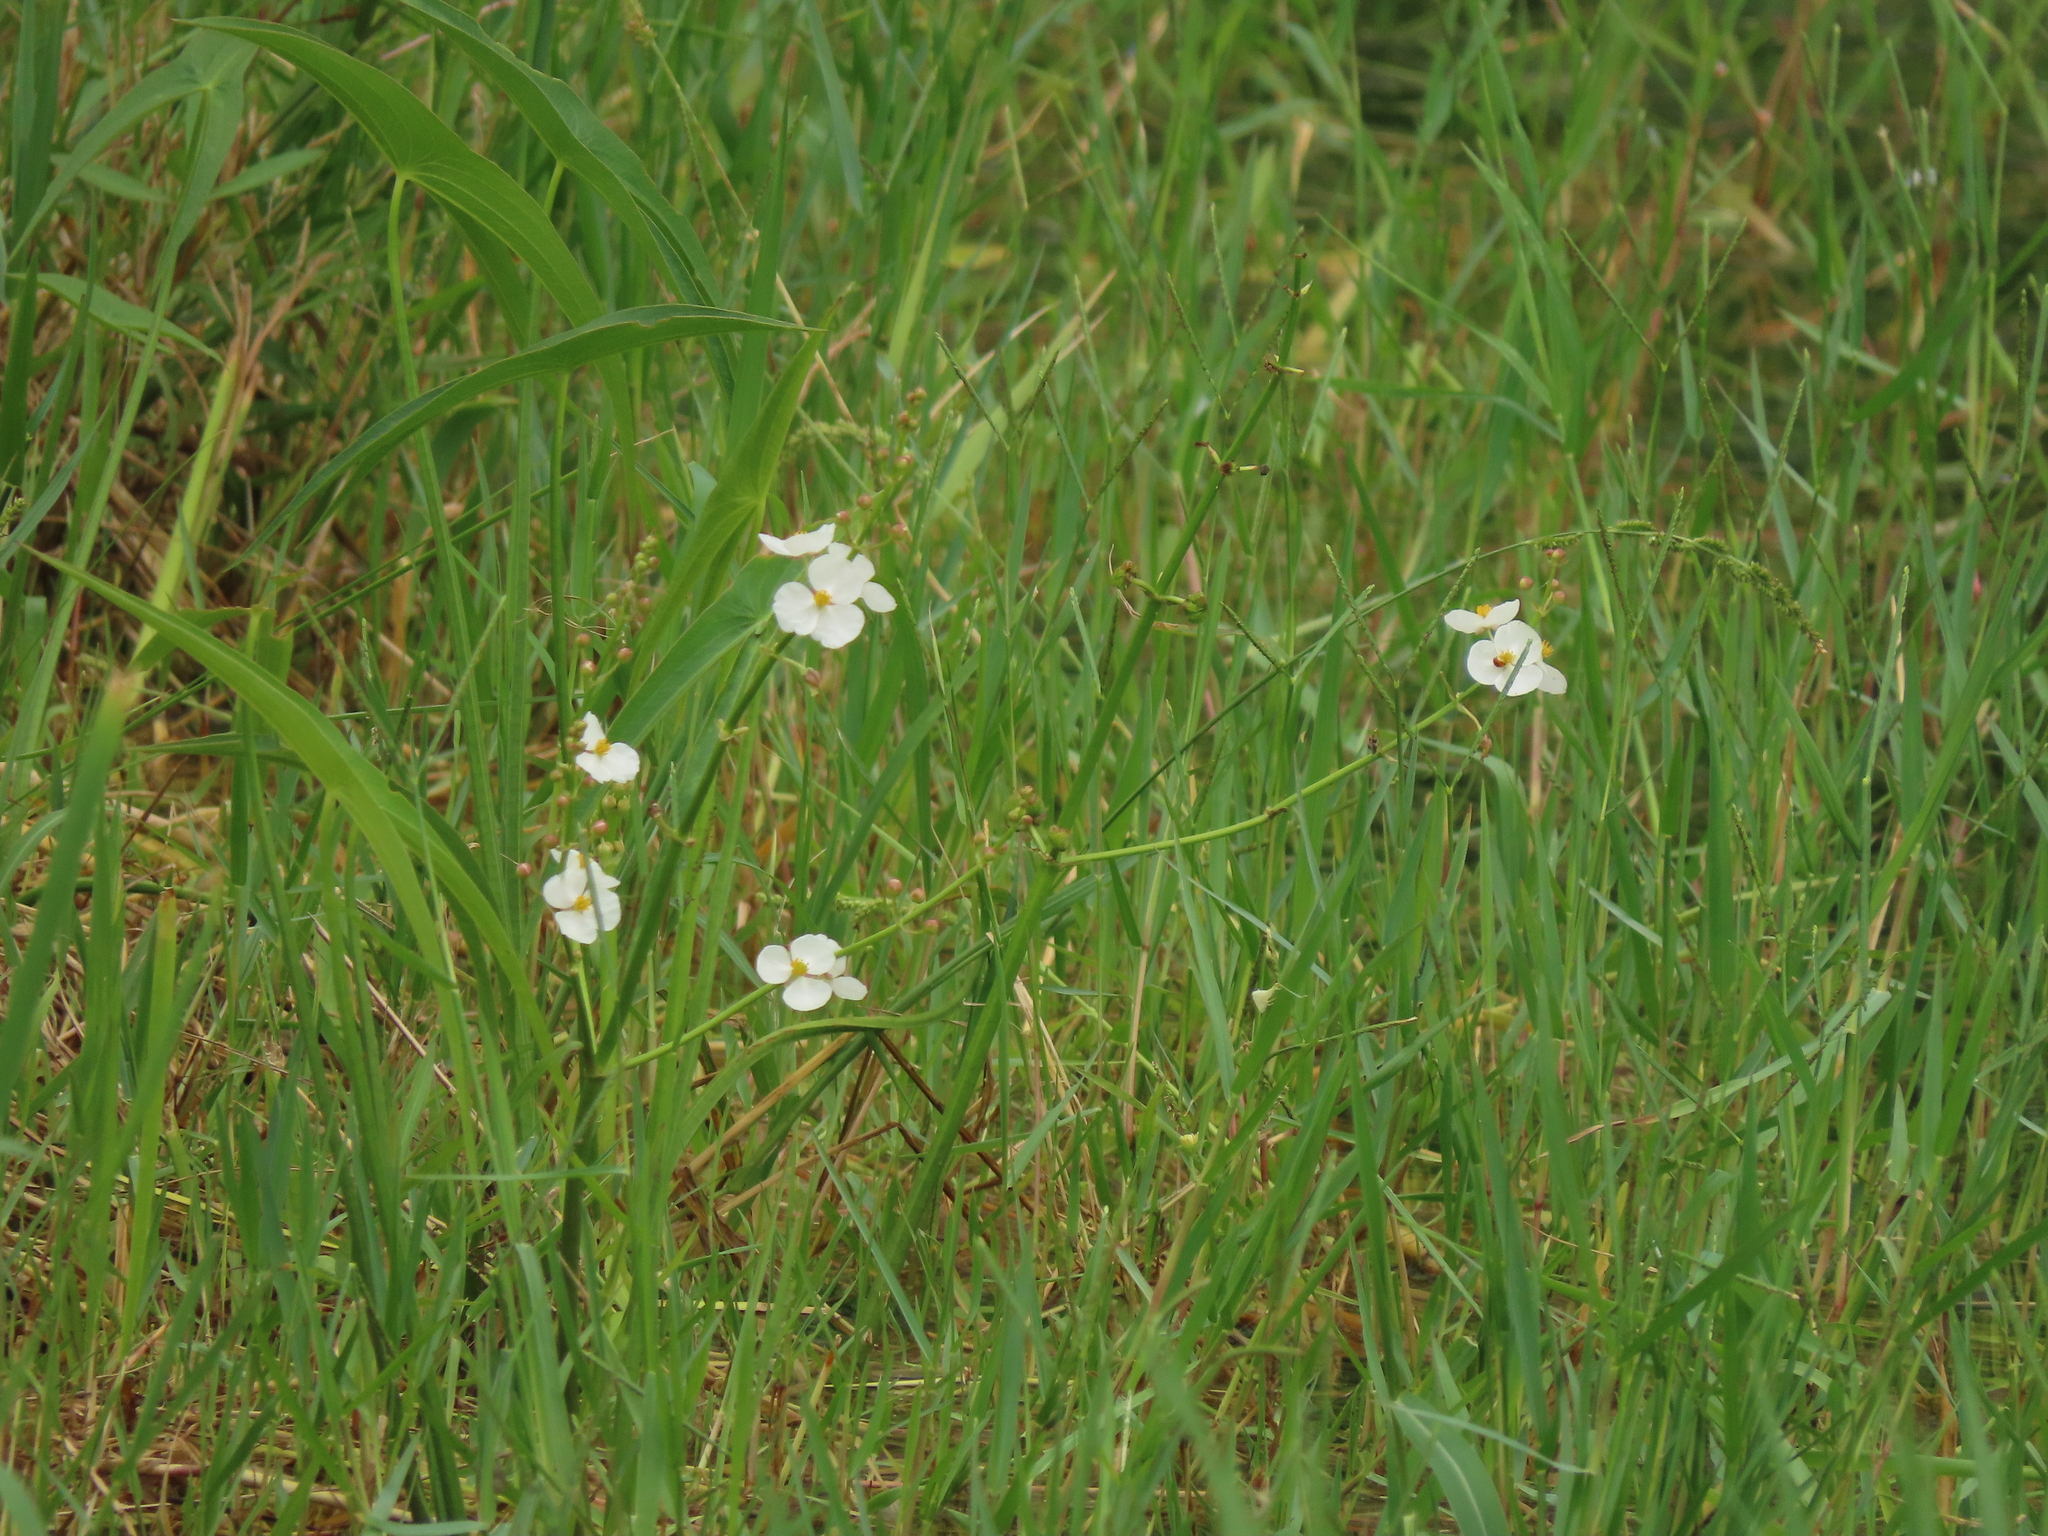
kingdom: Plantae
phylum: Tracheophyta
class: Liliopsida
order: Alismatales
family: Alismataceae
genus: Sagittaria
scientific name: Sagittaria trifolia
